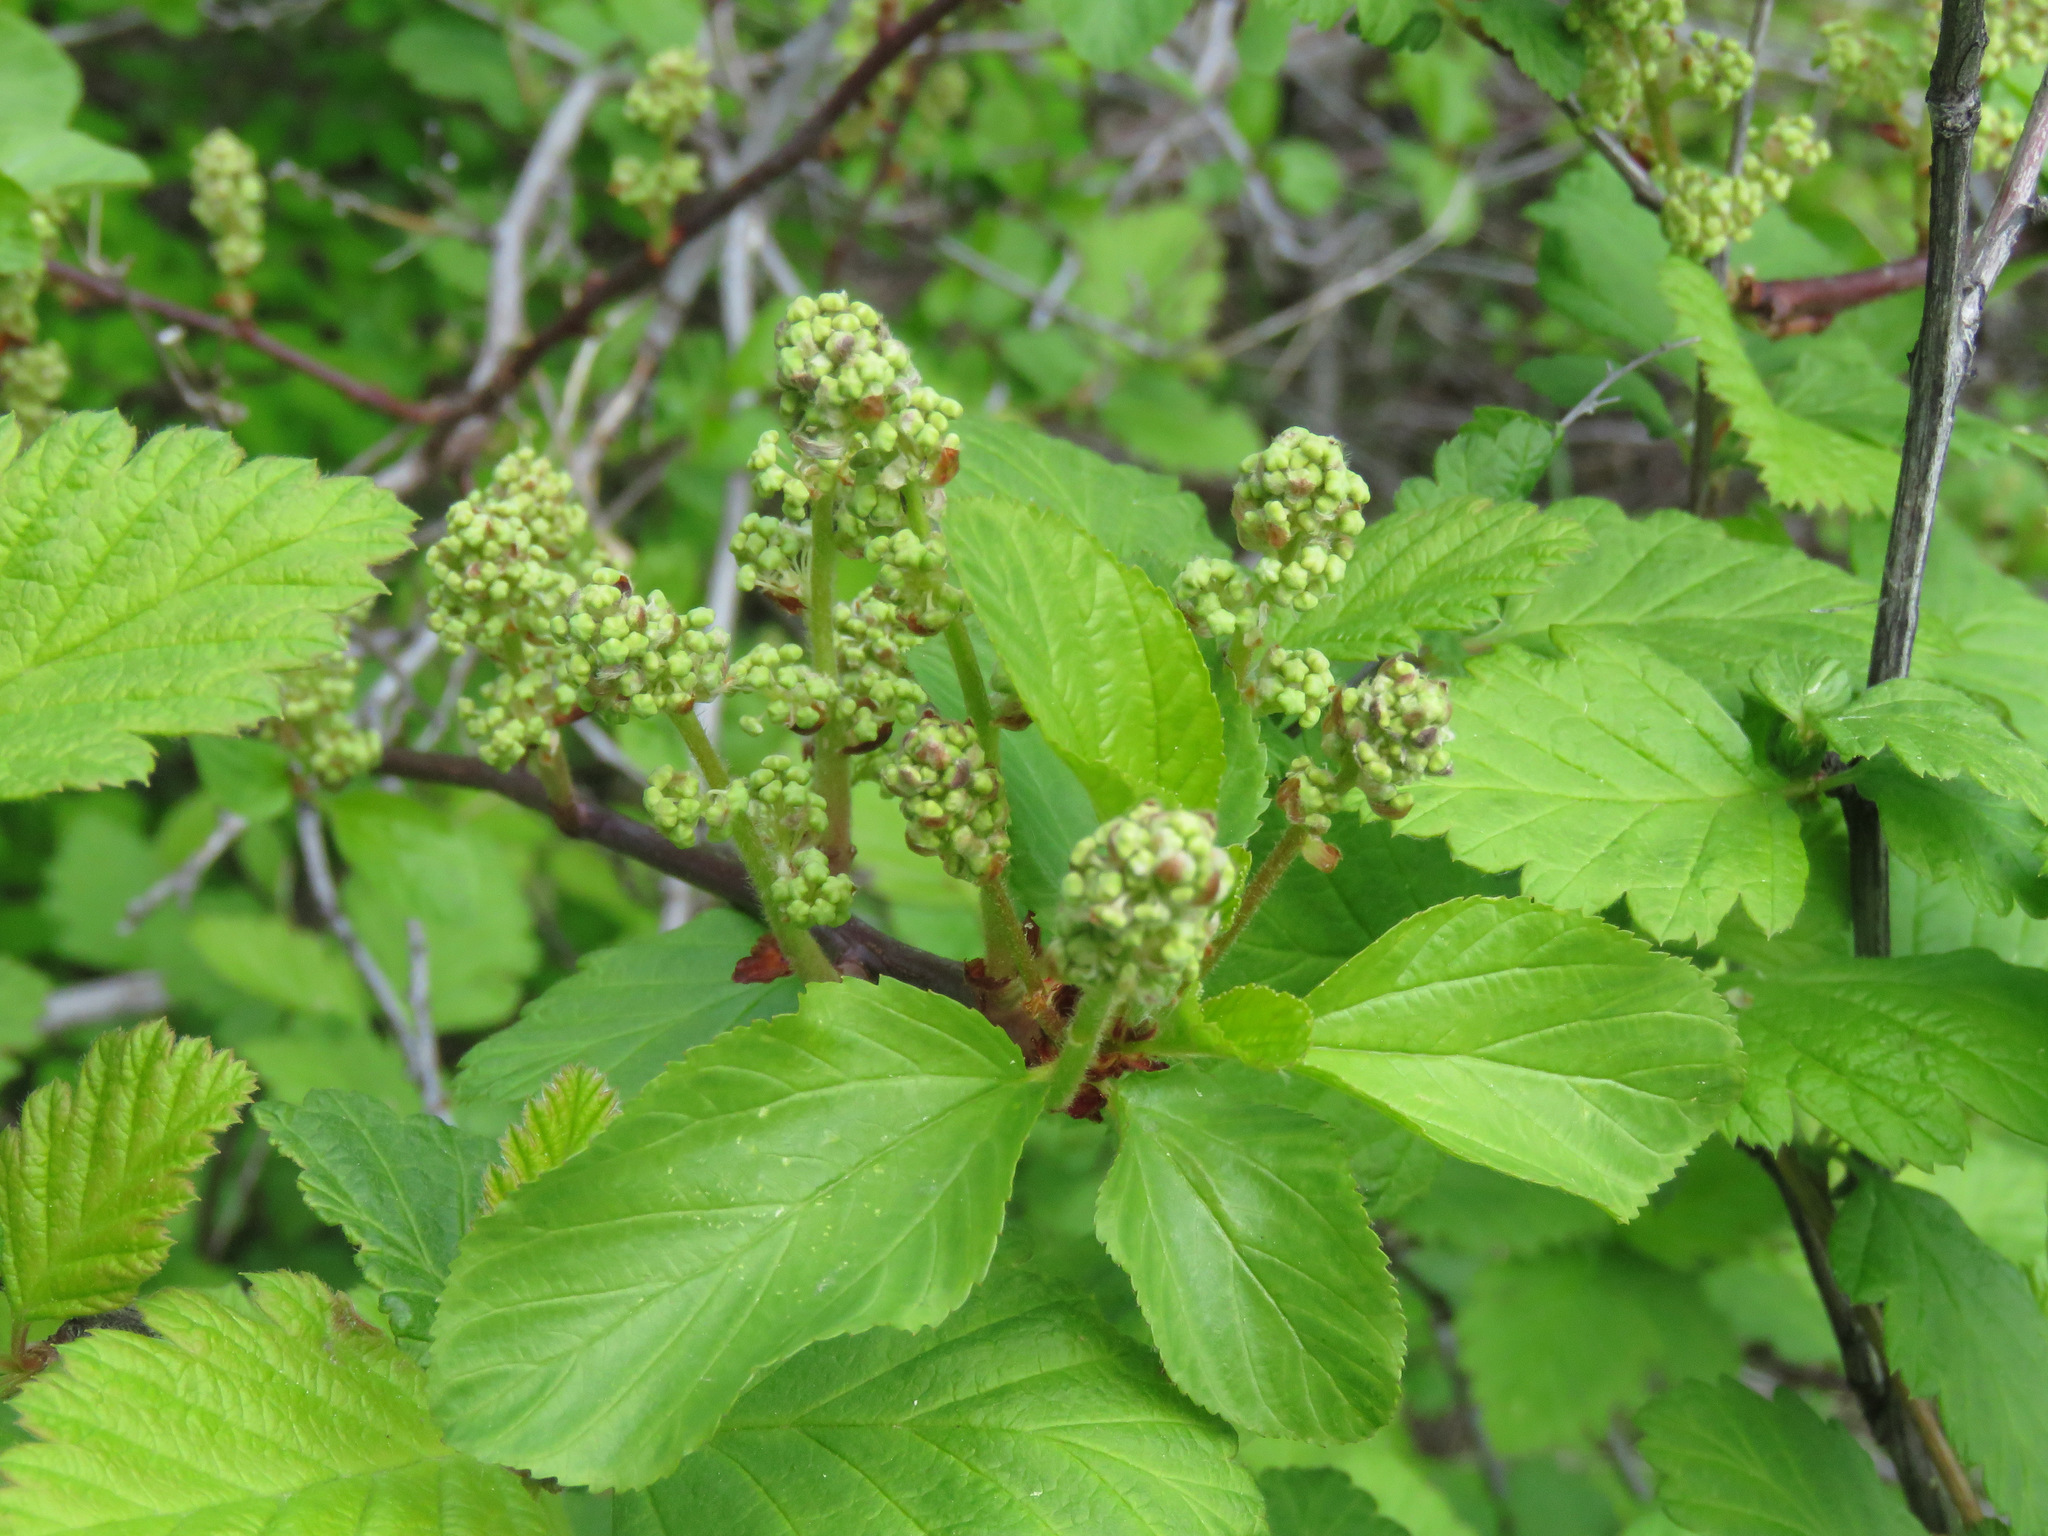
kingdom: Plantae
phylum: Tracheophyta
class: Magnoliopsida
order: Rosales
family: Rhamnaceae
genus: Ceanothus
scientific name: Ceanothus sanguineus
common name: Teatree
